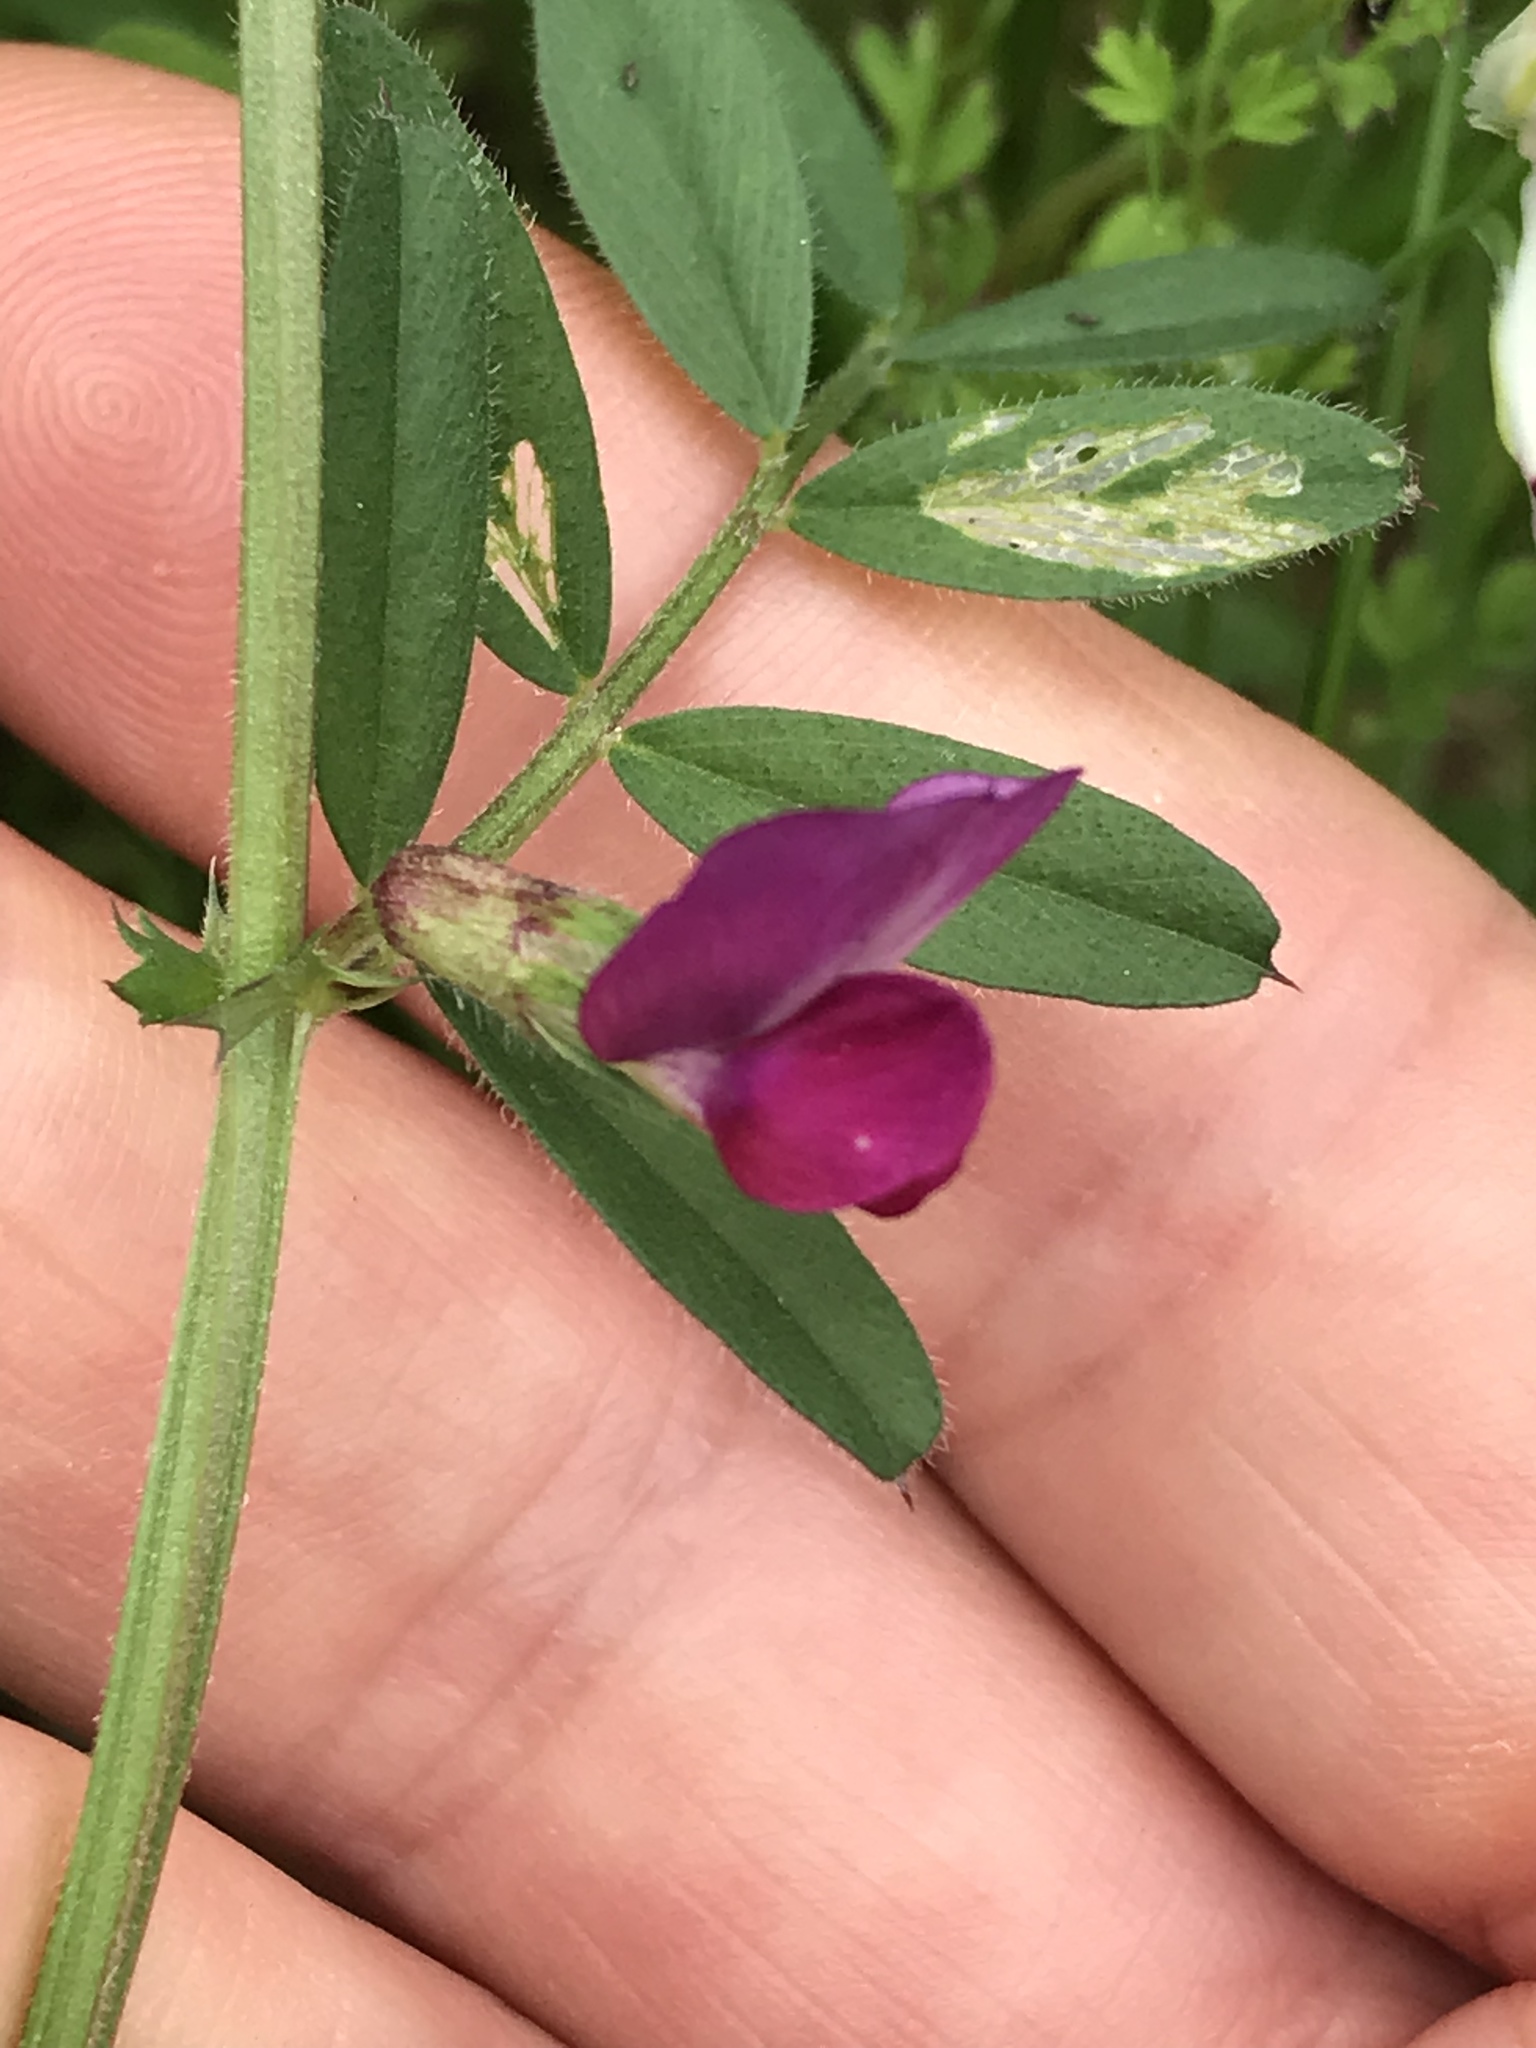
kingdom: Plantae
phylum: Tracheophyta
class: Magnoliopsida
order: Fabales
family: Fabaceae
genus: Vicia
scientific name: Vicia sativa
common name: Garden vetch
